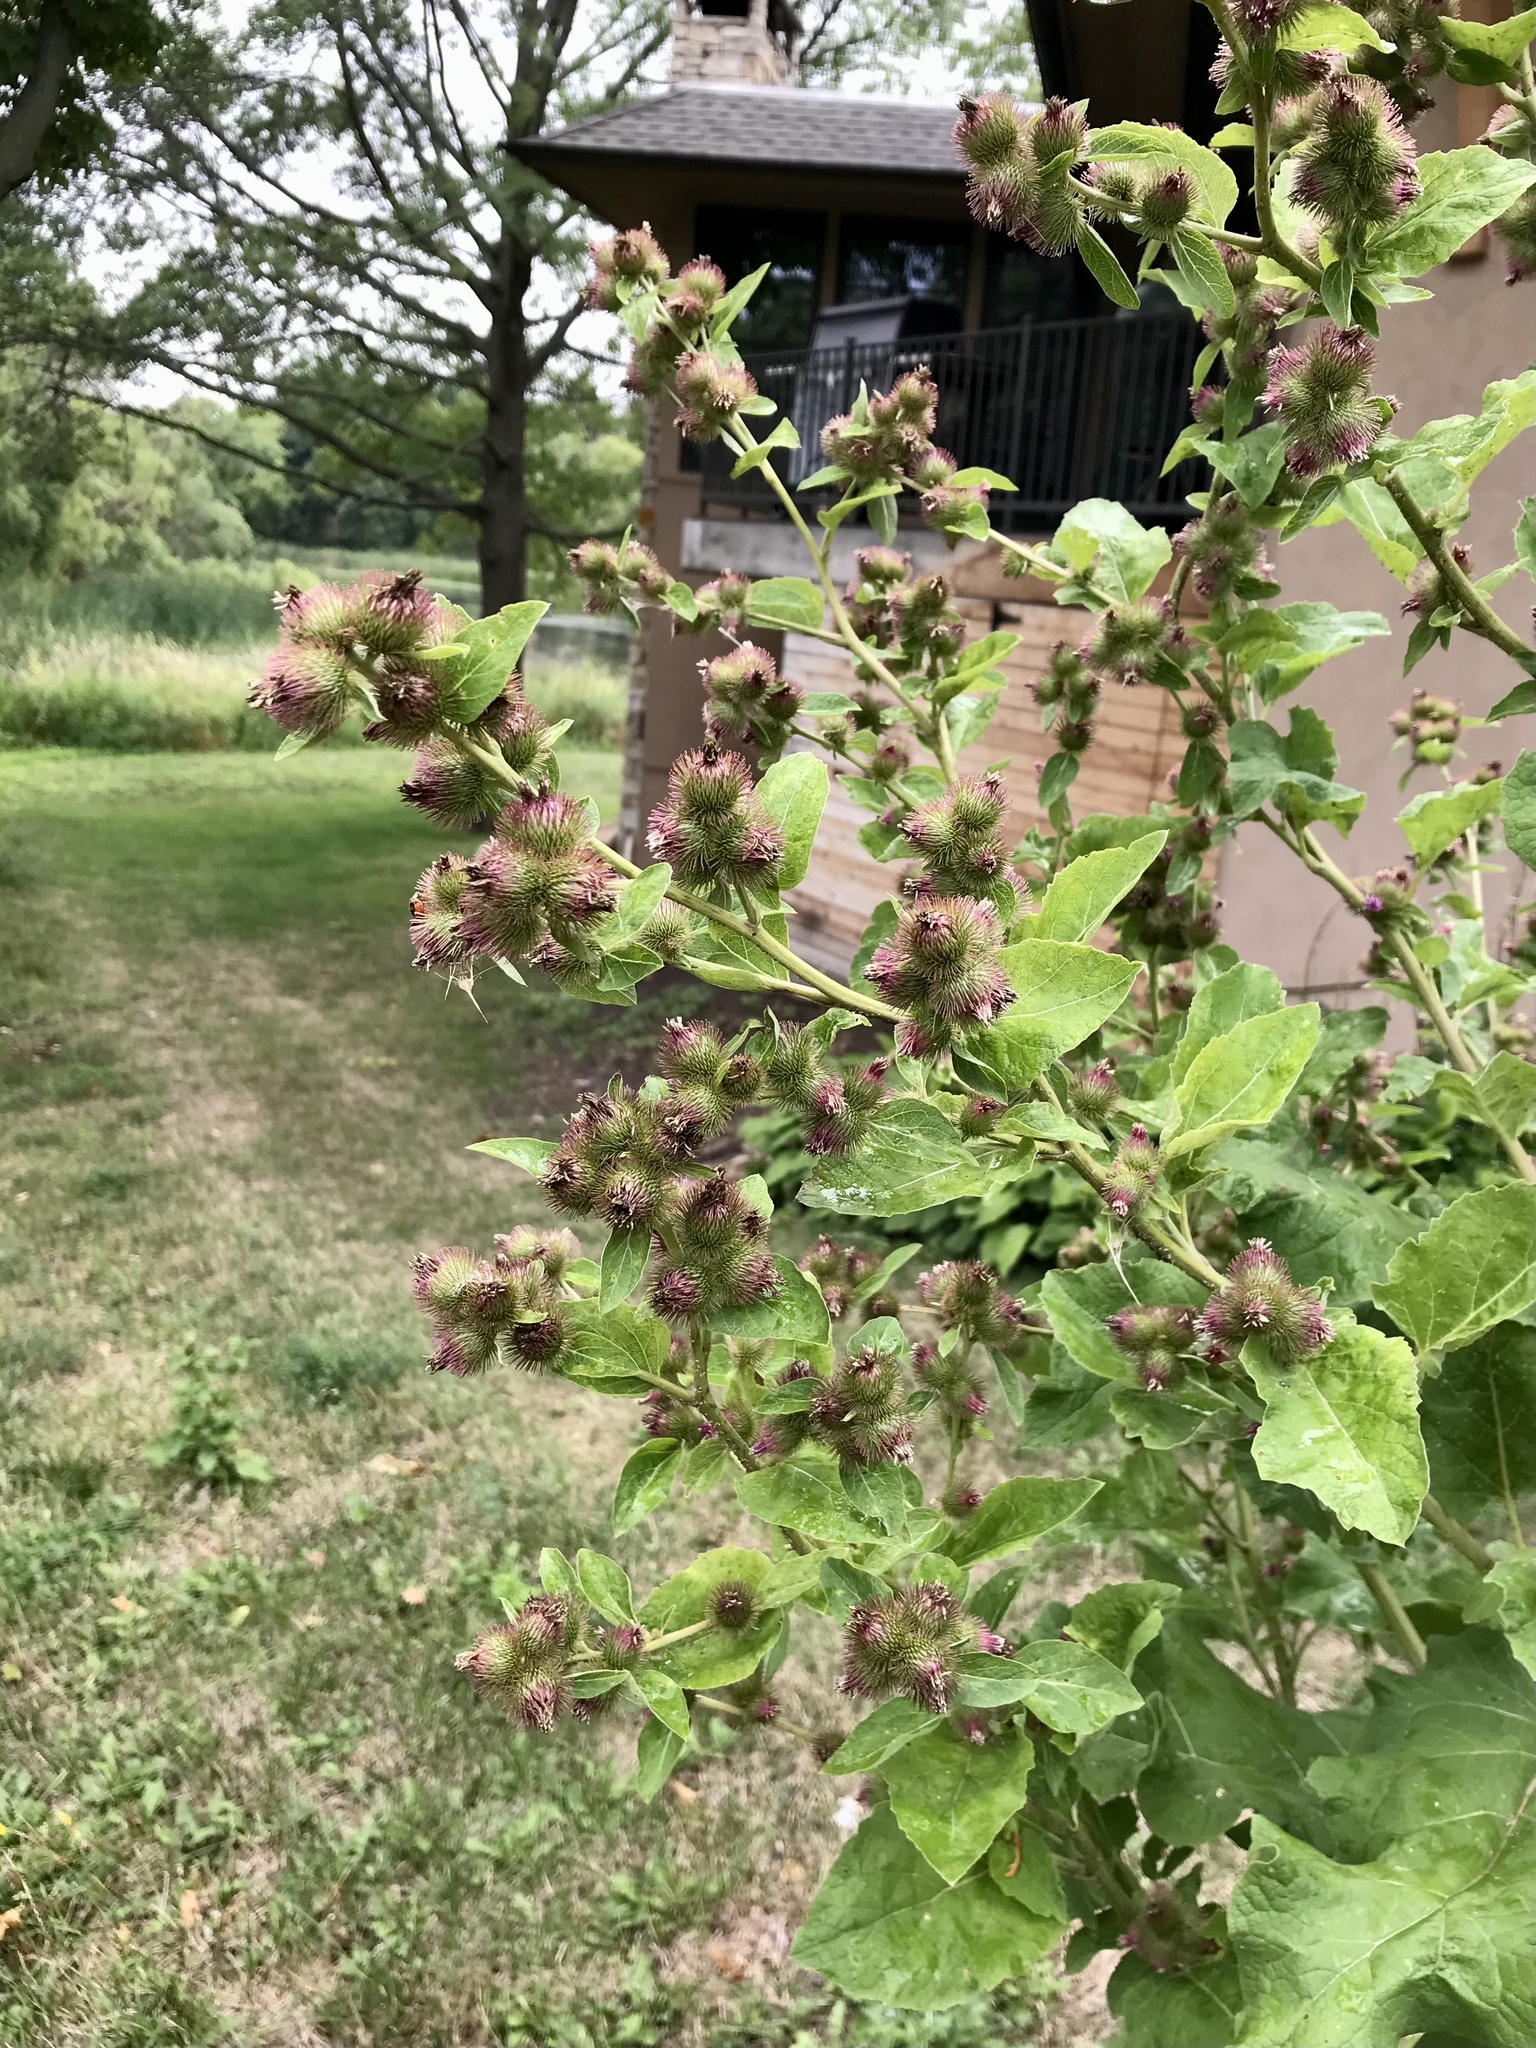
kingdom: Plantae
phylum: Tracheophyta
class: Magnoliopsida
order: Asterales
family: Asteraceae
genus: Arctium
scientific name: Arctium minus
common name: Lesser burdock
